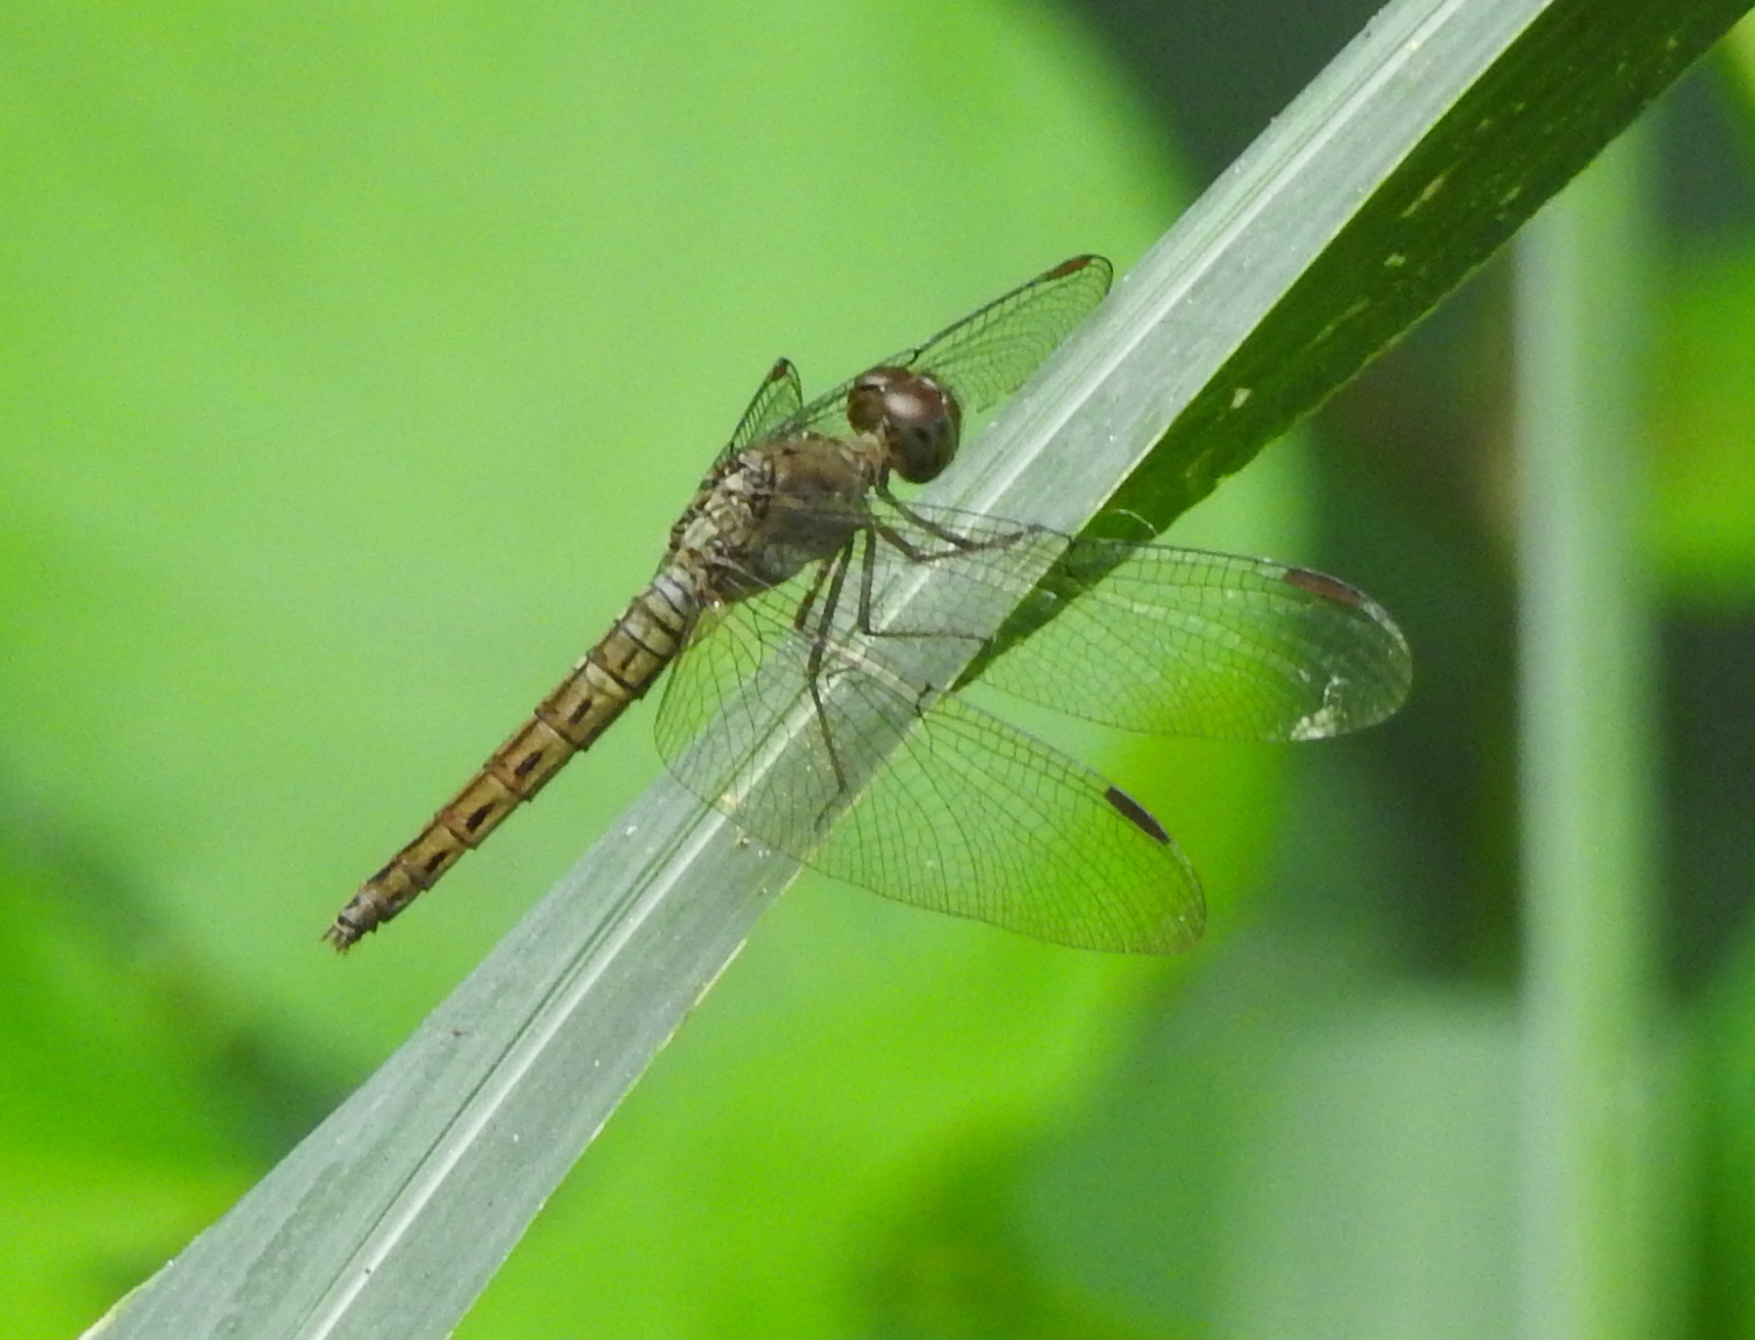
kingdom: Animalia
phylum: Arthropoda
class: Insecta
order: Odonata
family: Libellulidae
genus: Neurothemis
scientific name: Neurothemis fluctuans
